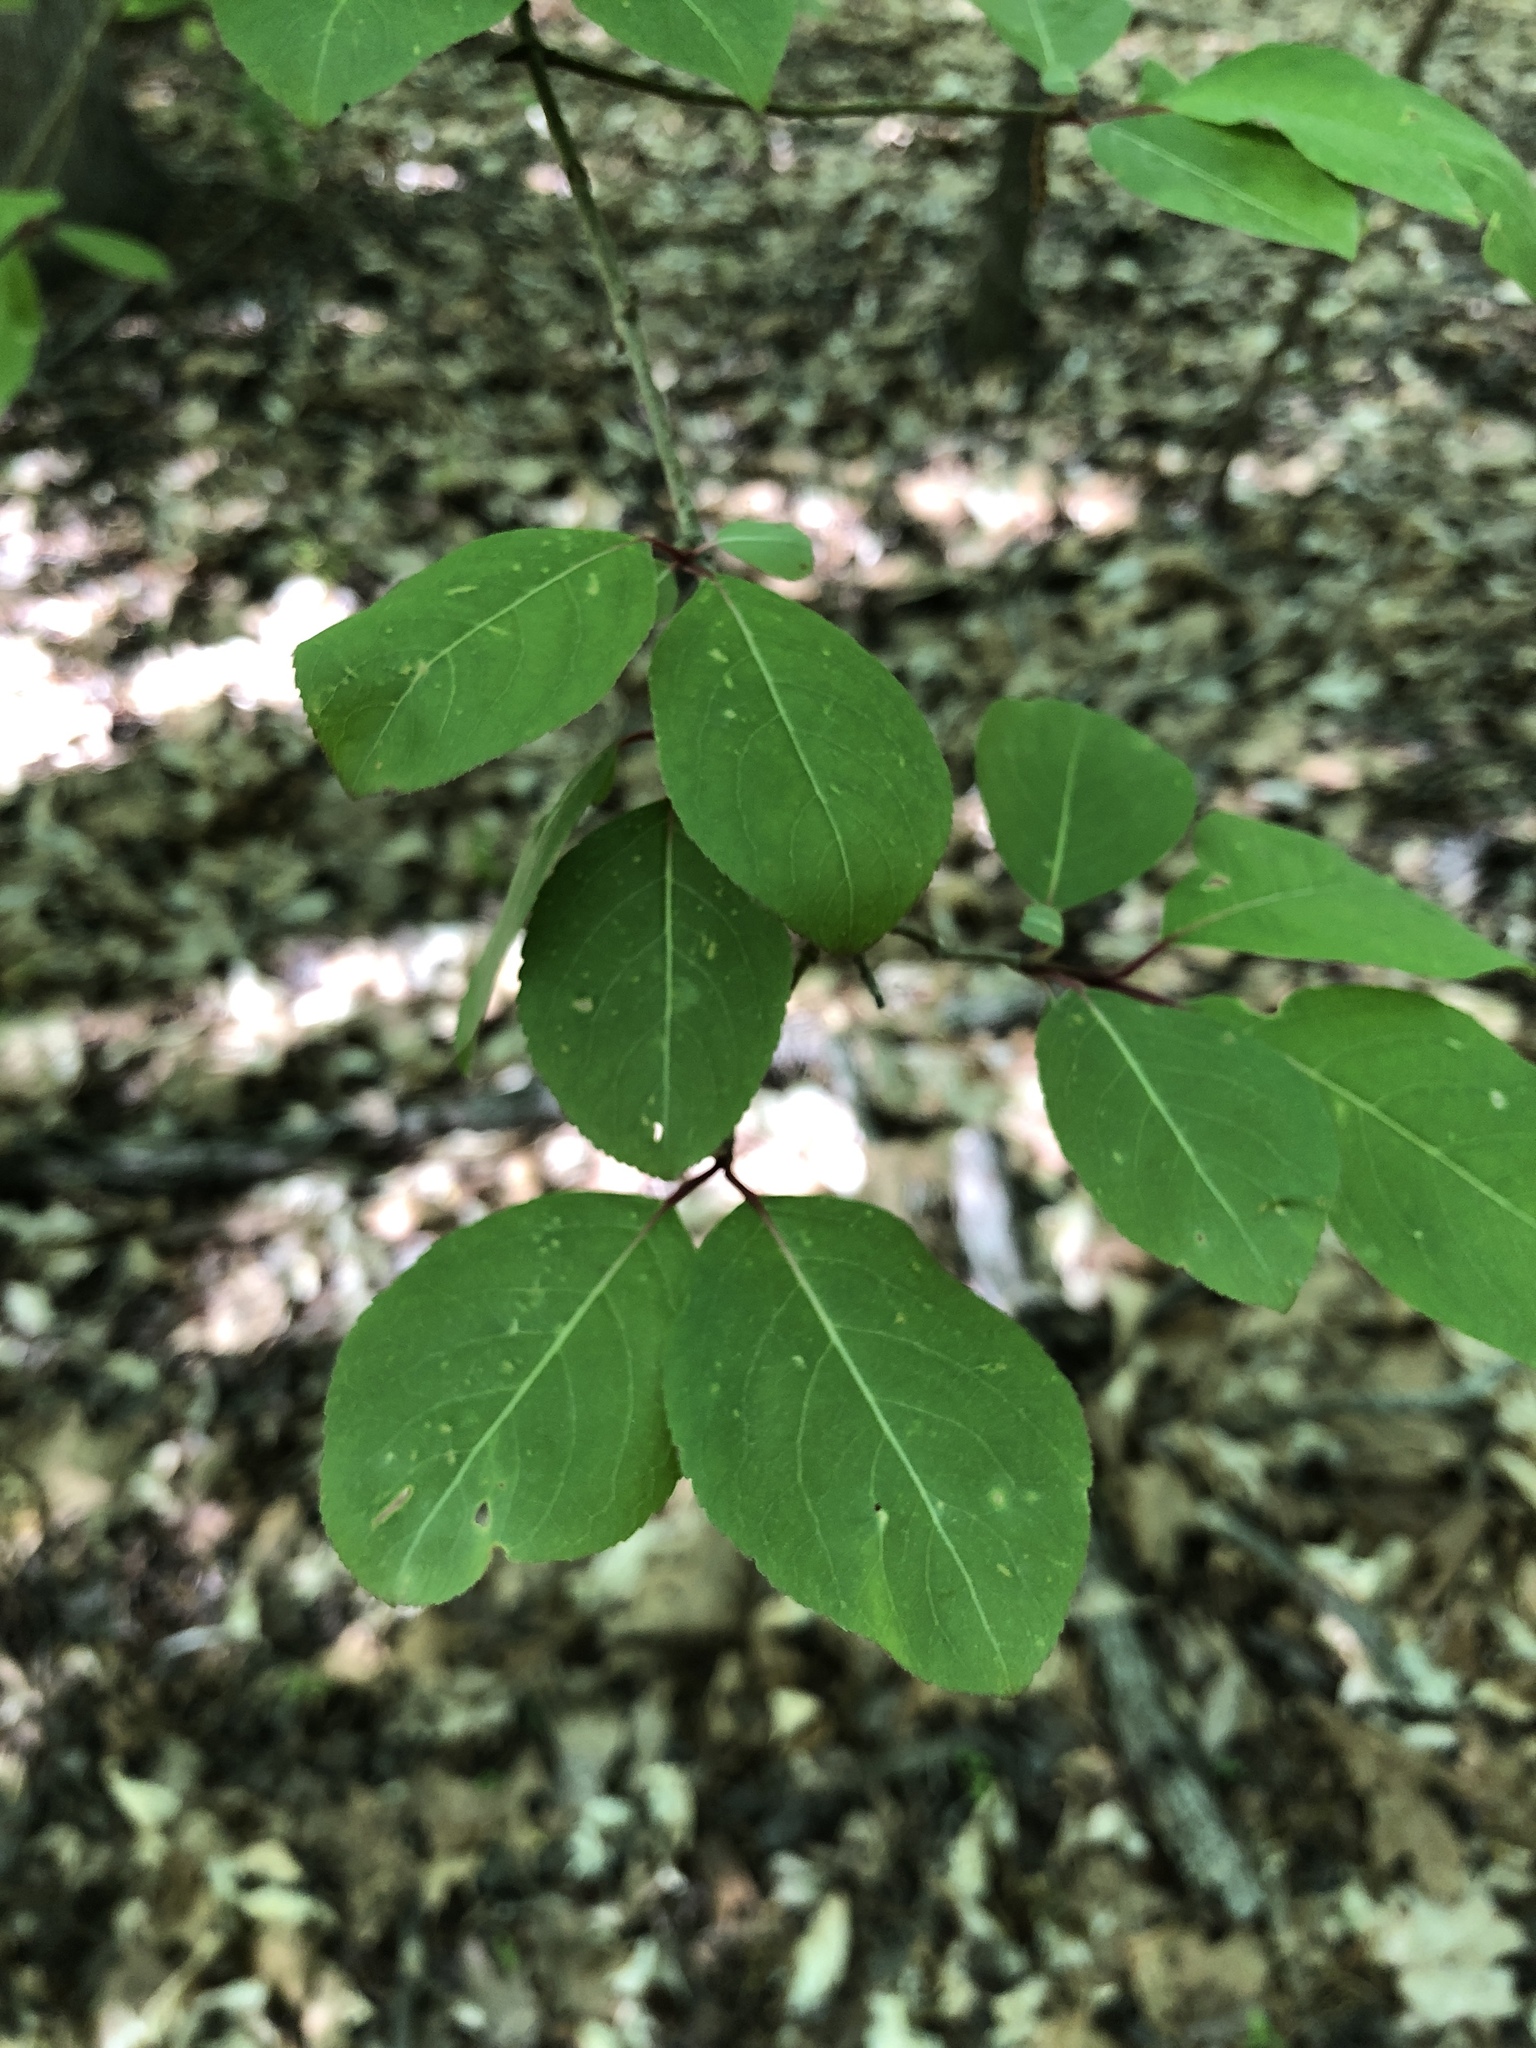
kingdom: Plantae
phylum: Tracheophyta
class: Magnoliopsida
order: Dipsacales
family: Viburnaceae
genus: Viburnum
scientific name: Viburnum prunifolium
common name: Black haw
